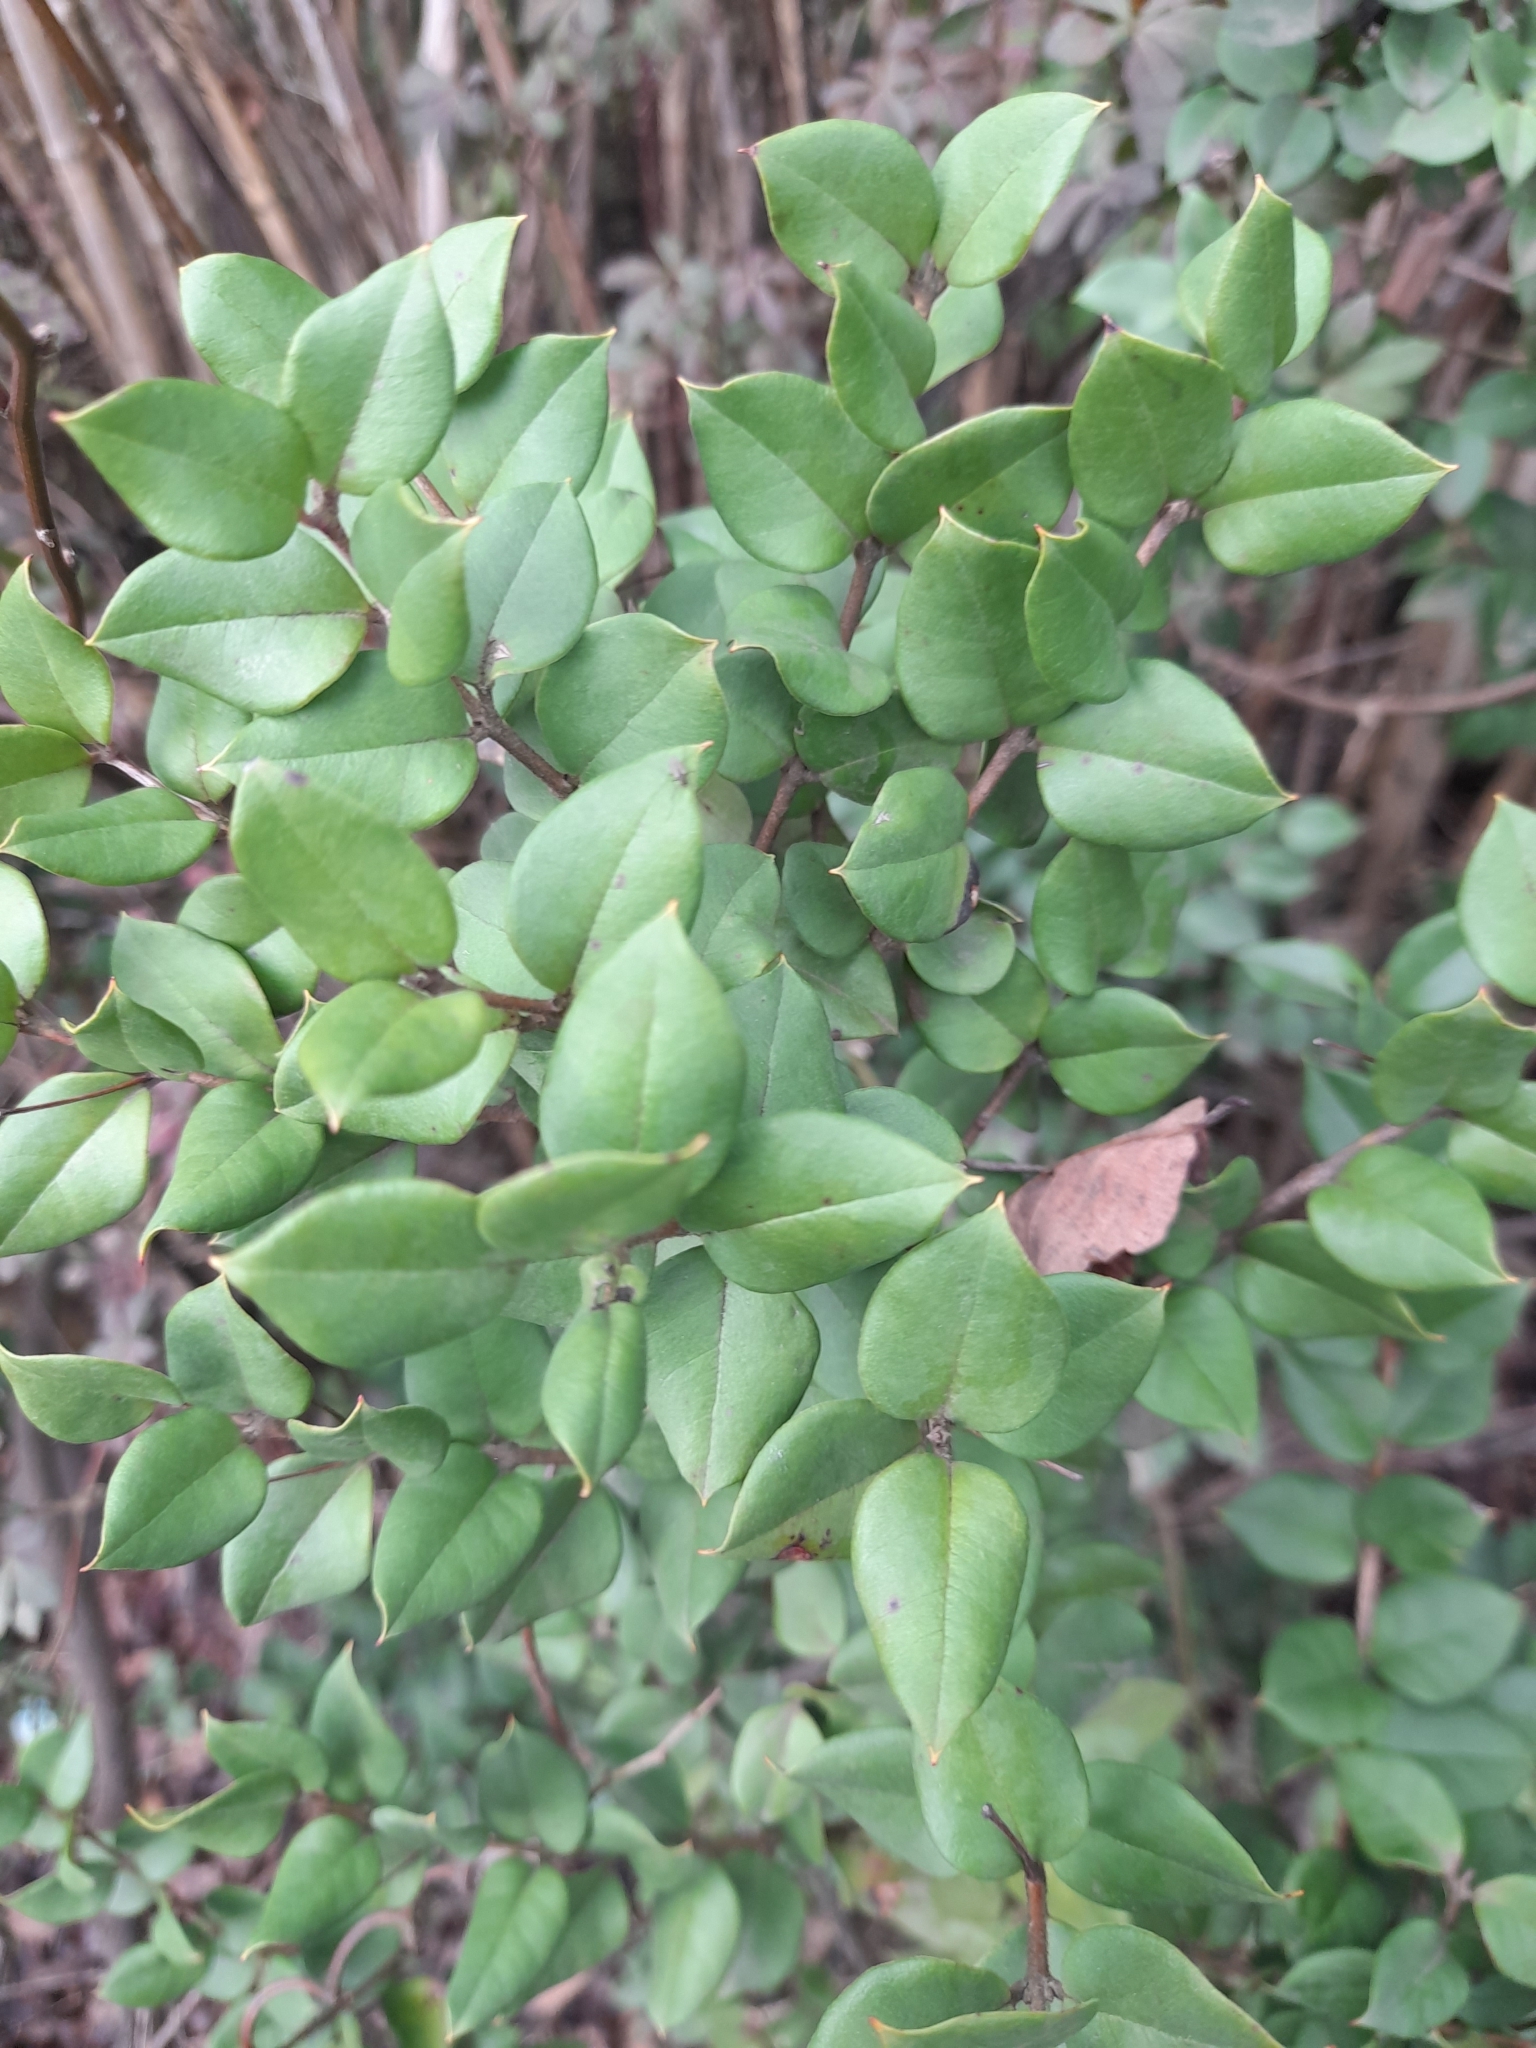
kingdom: Plantae
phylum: Tracheophyta
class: Magnoliopsida
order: Myrtales
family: Myrtaceae
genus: Luma
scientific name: Luma apiculata
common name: Chilean myrtle
